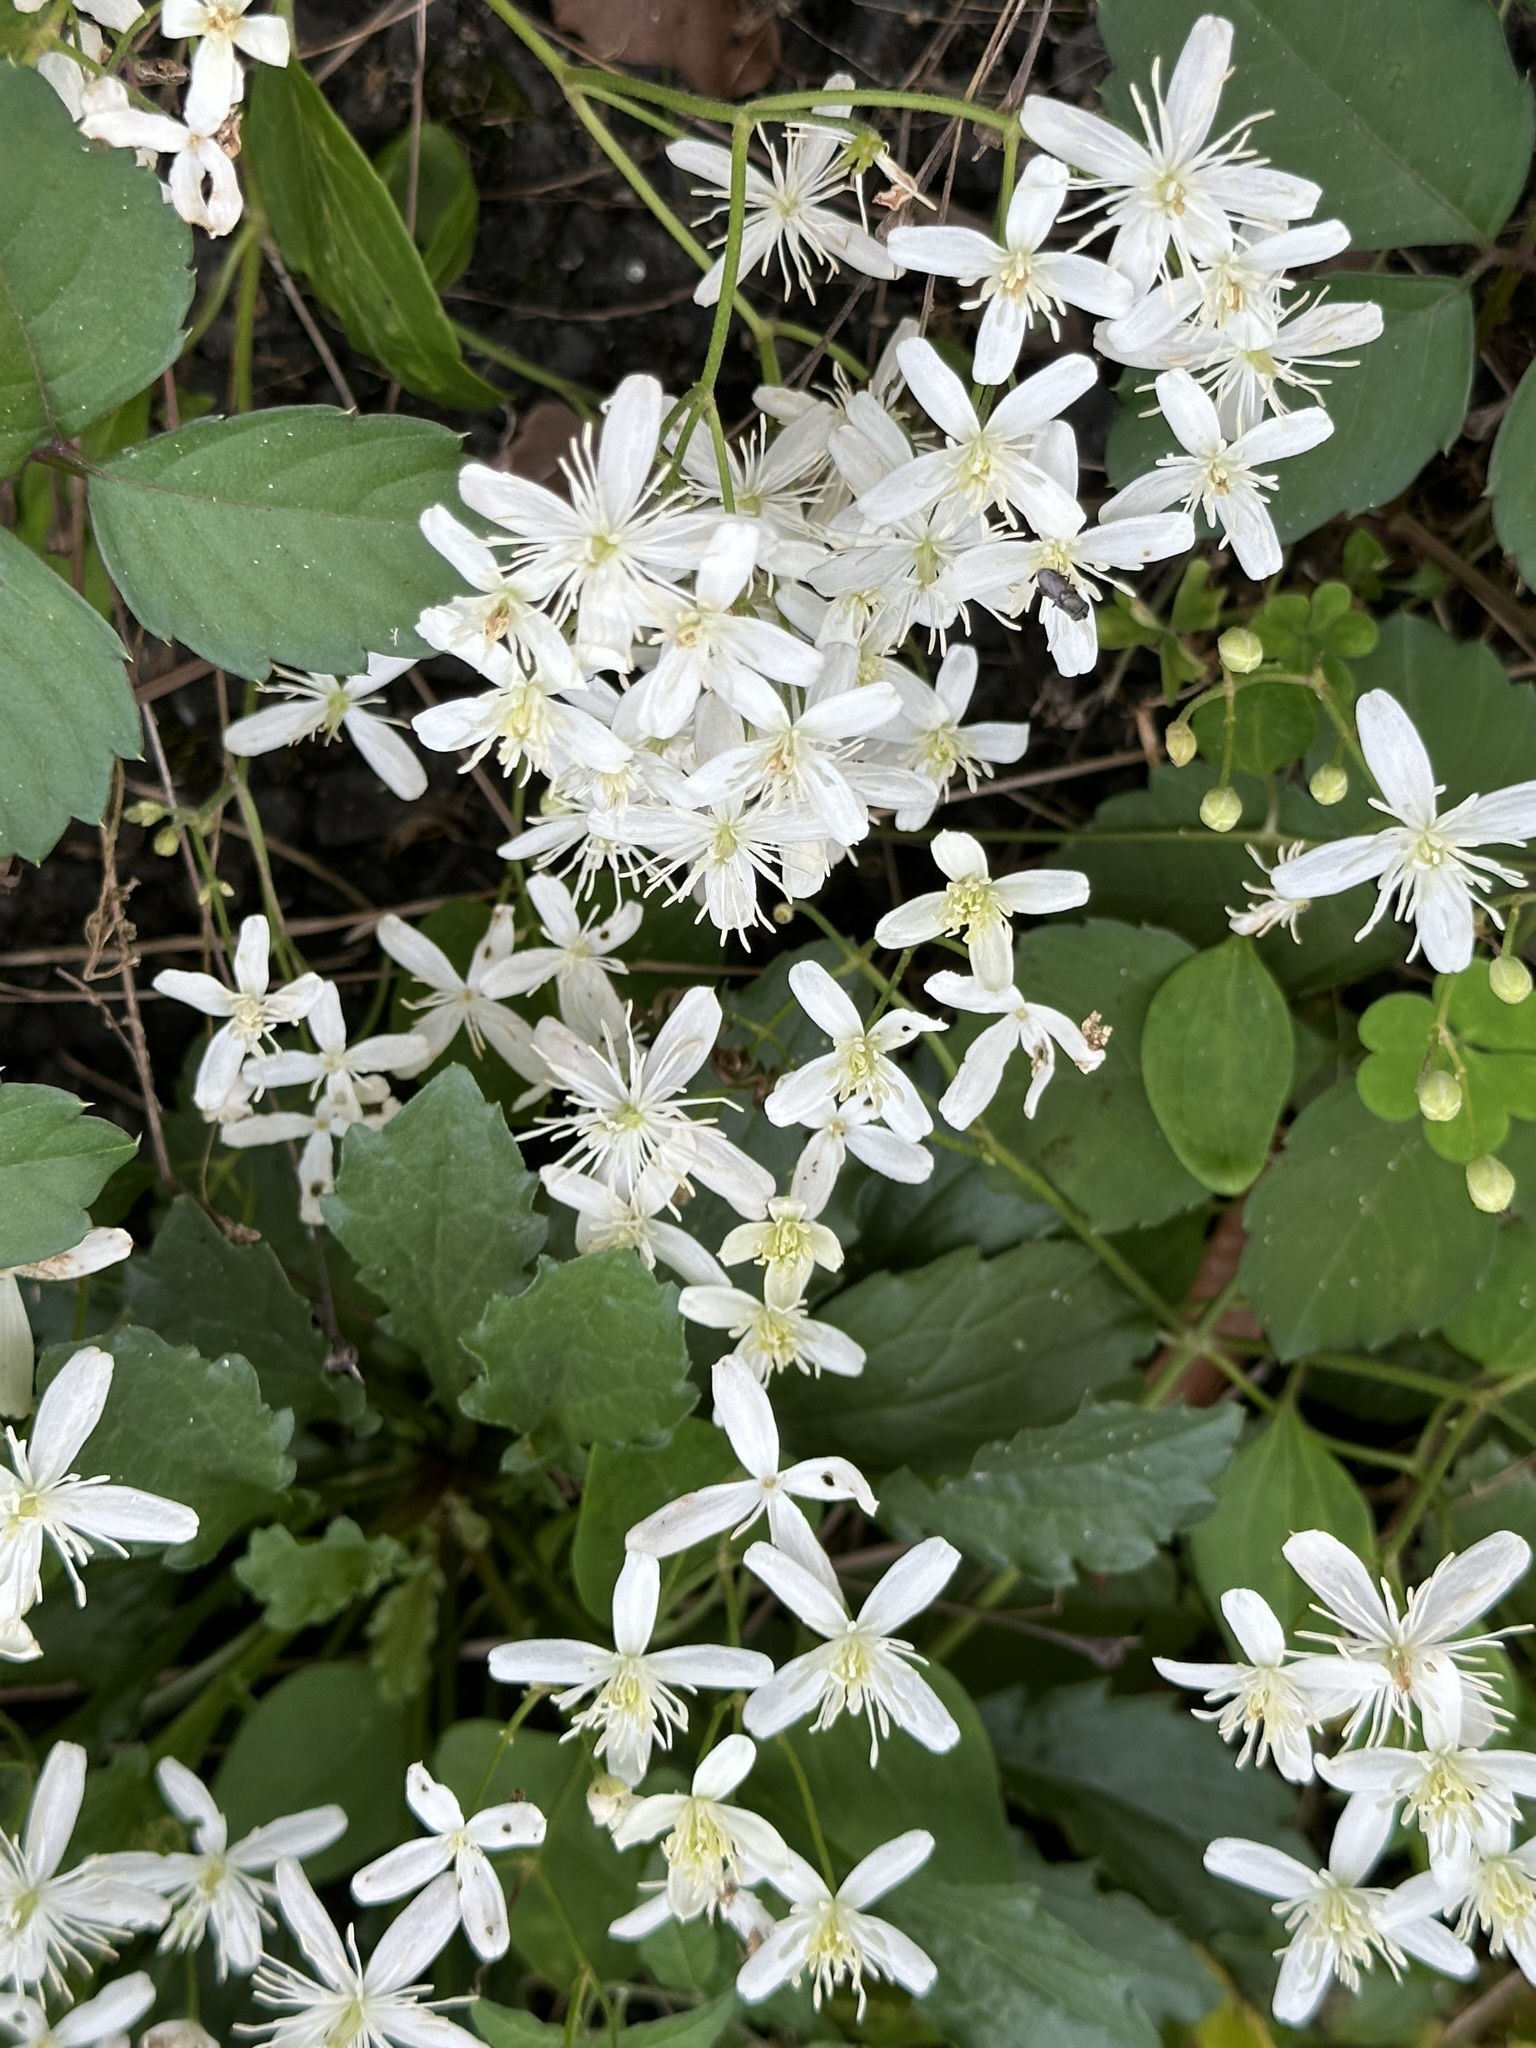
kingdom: Plantae
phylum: Tracheophyta
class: Magnoliopsida
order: Ranunculales
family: Ranunculaceae
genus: Clematis
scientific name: Clematis terniflora
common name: Sweet autumn clematis
